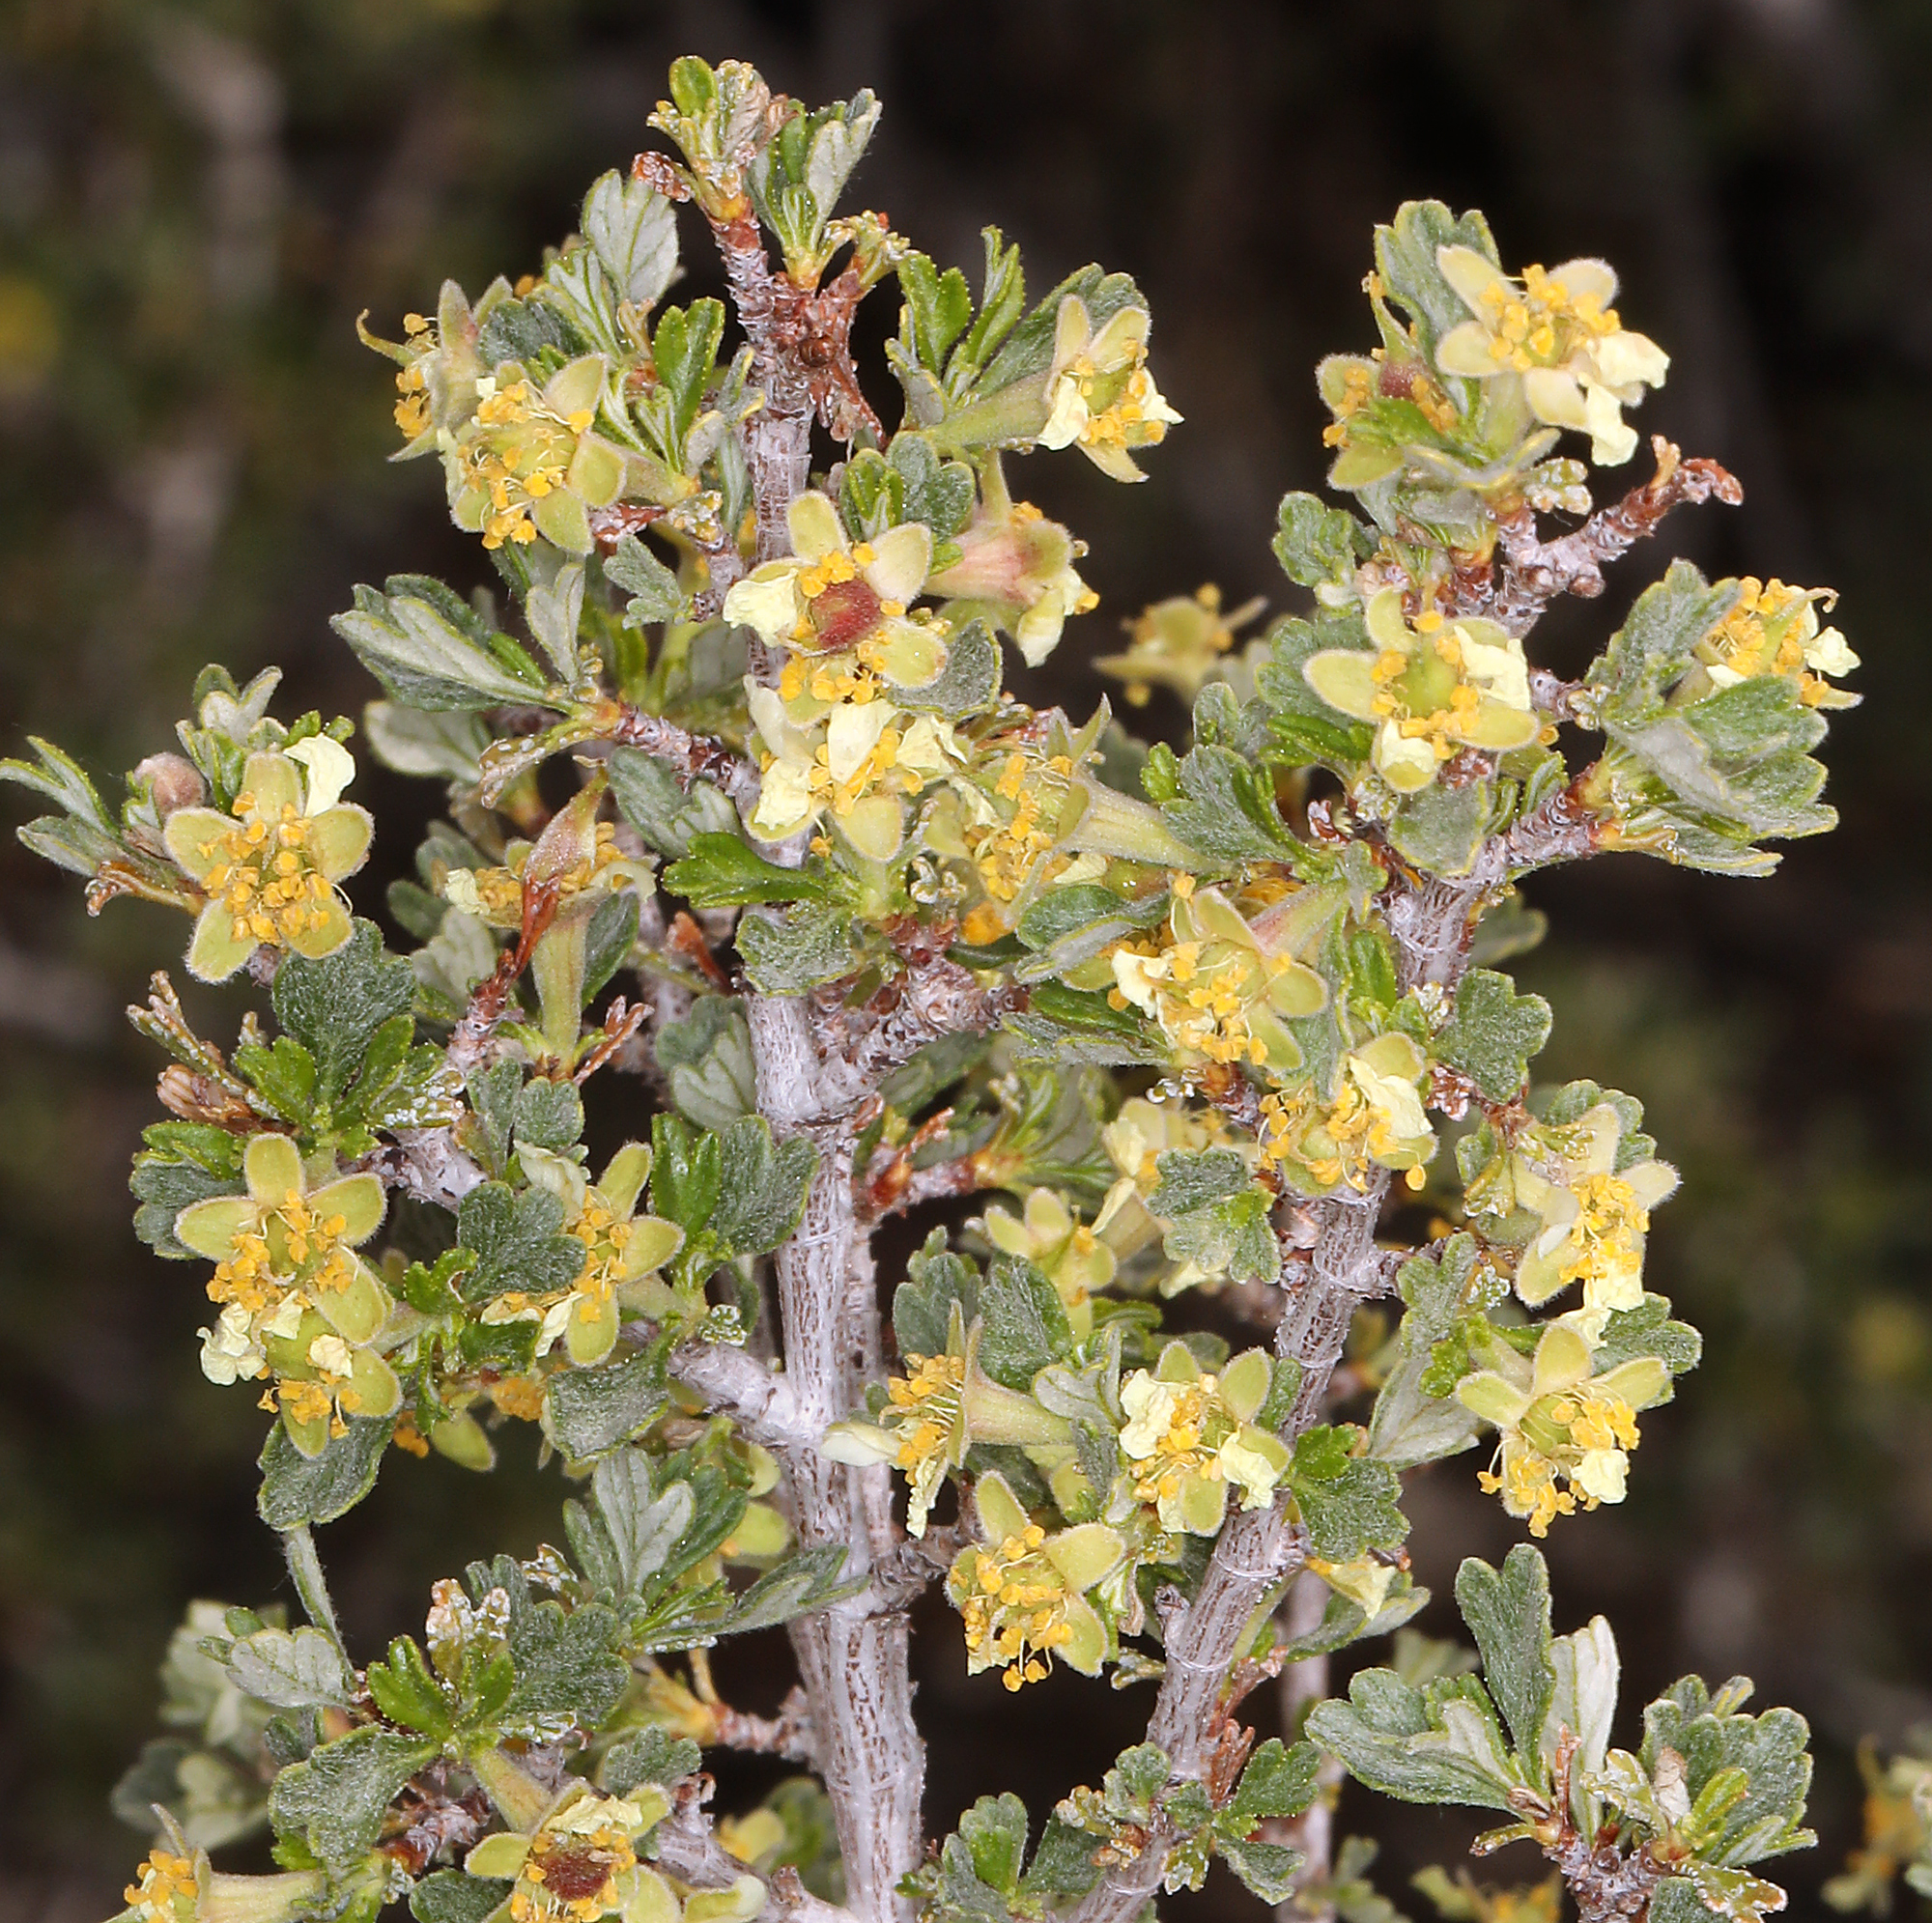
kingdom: Plantae
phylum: Tracheophyta
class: Magnoliopsida
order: Rosales
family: Rosaceae
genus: Purshia
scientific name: Purshia tridentata
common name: Antelope bitterbrush
